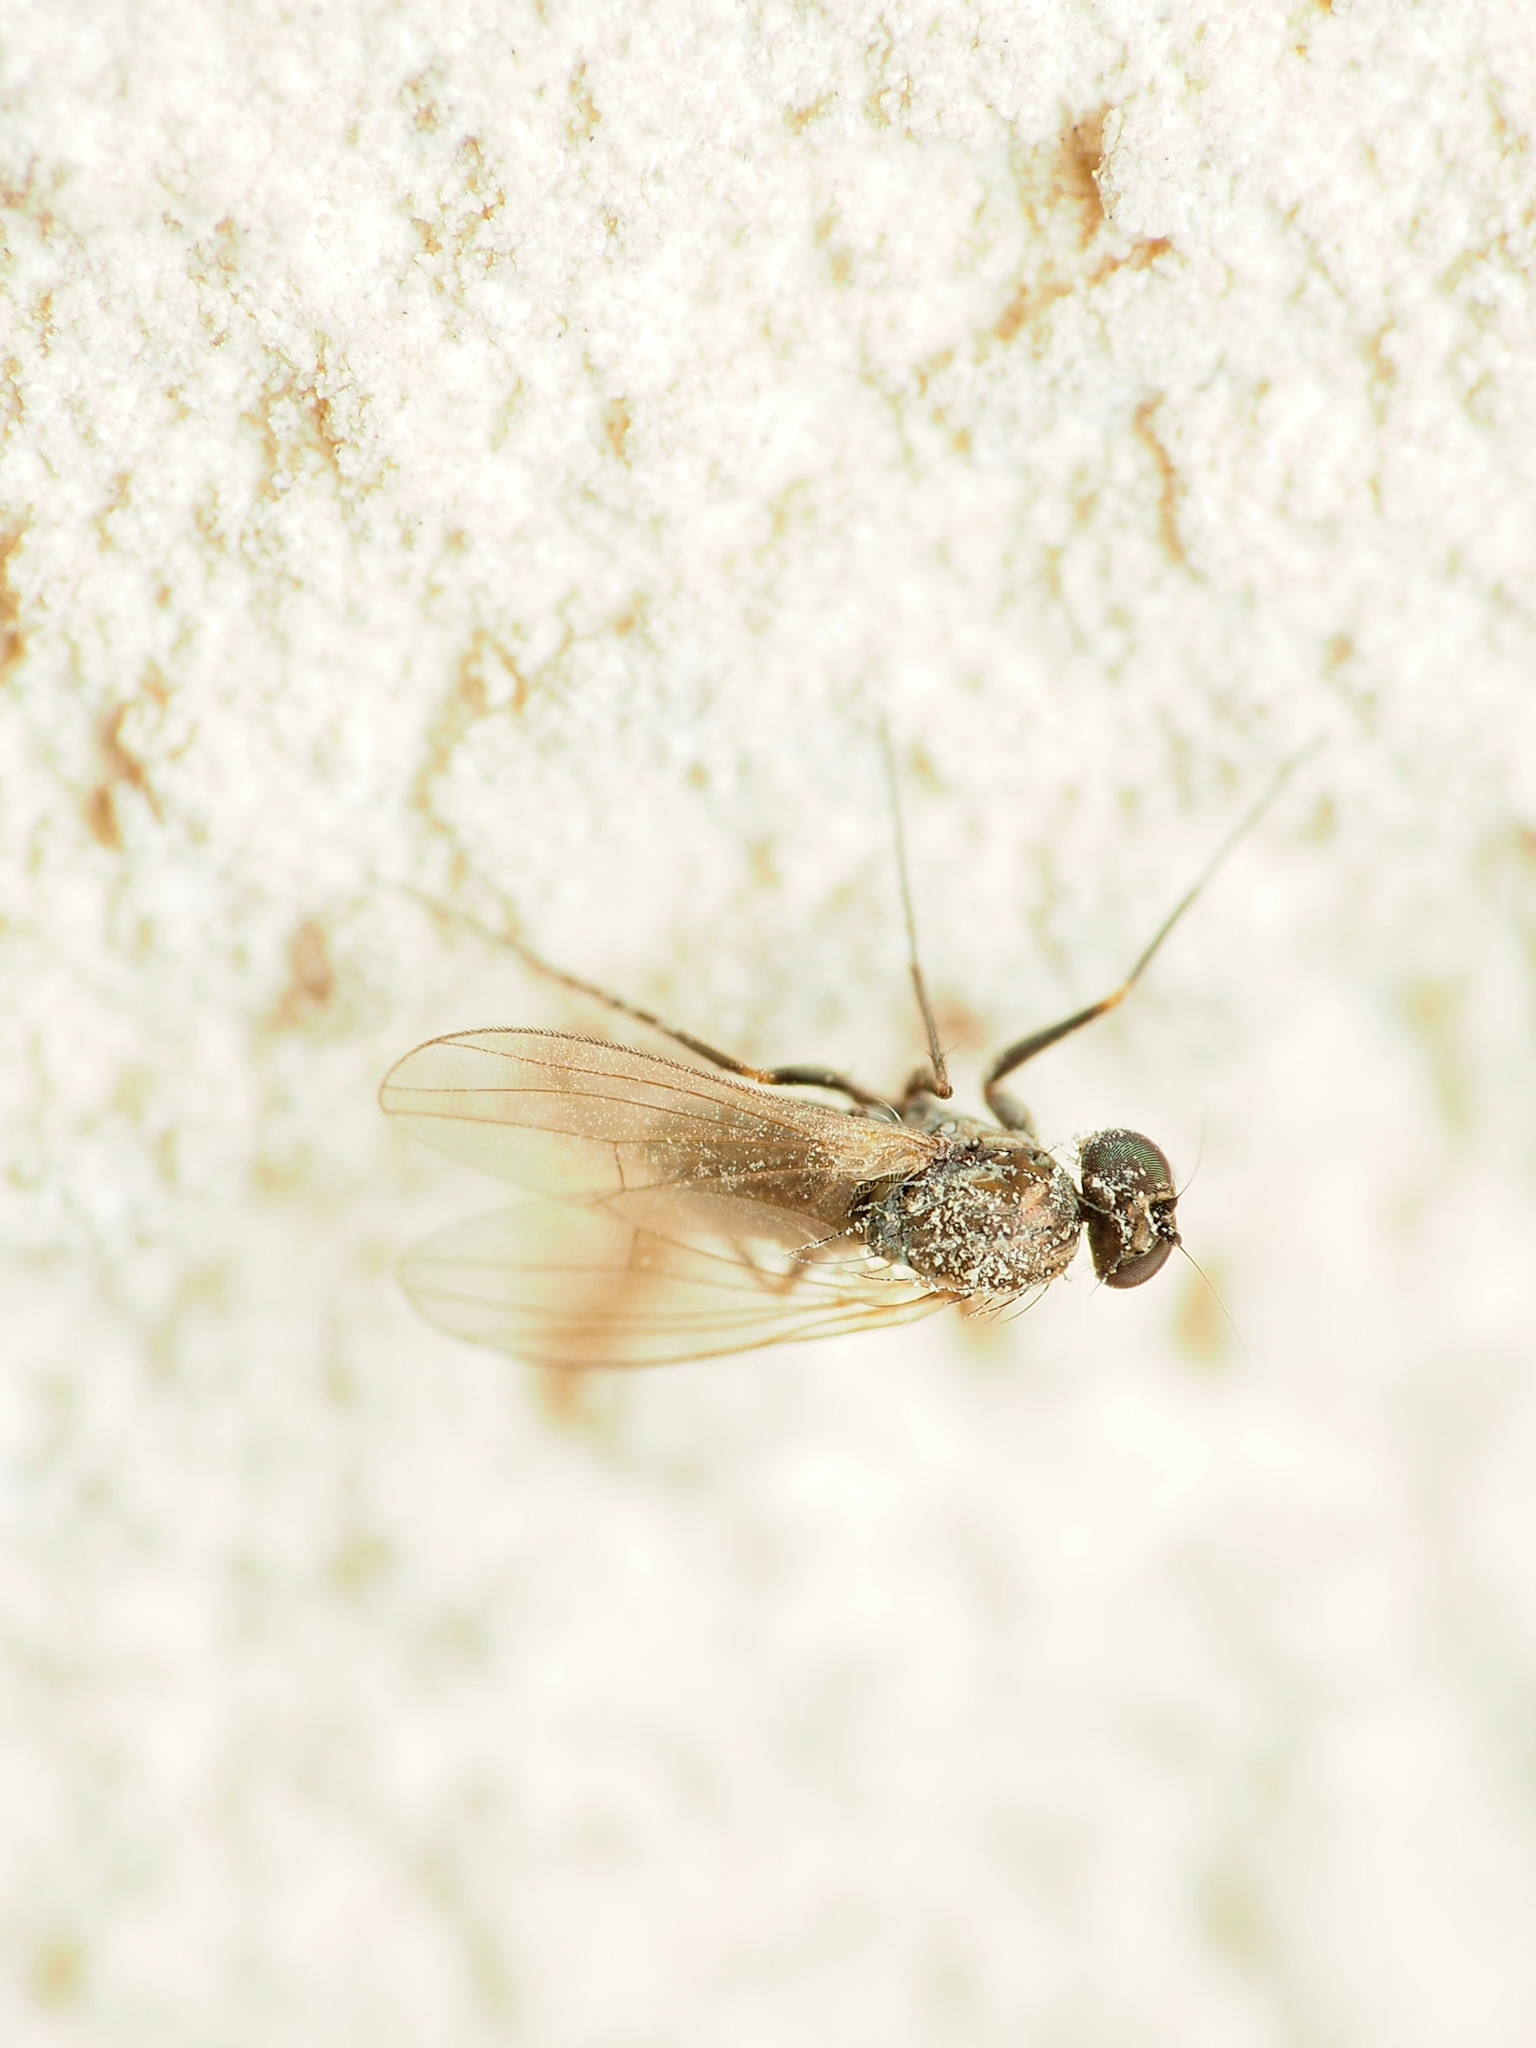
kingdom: Animalia
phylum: Arthropoda
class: Insecta
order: Diptera
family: Dolichopodidae
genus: Medetera
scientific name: Medetera saxatilis
